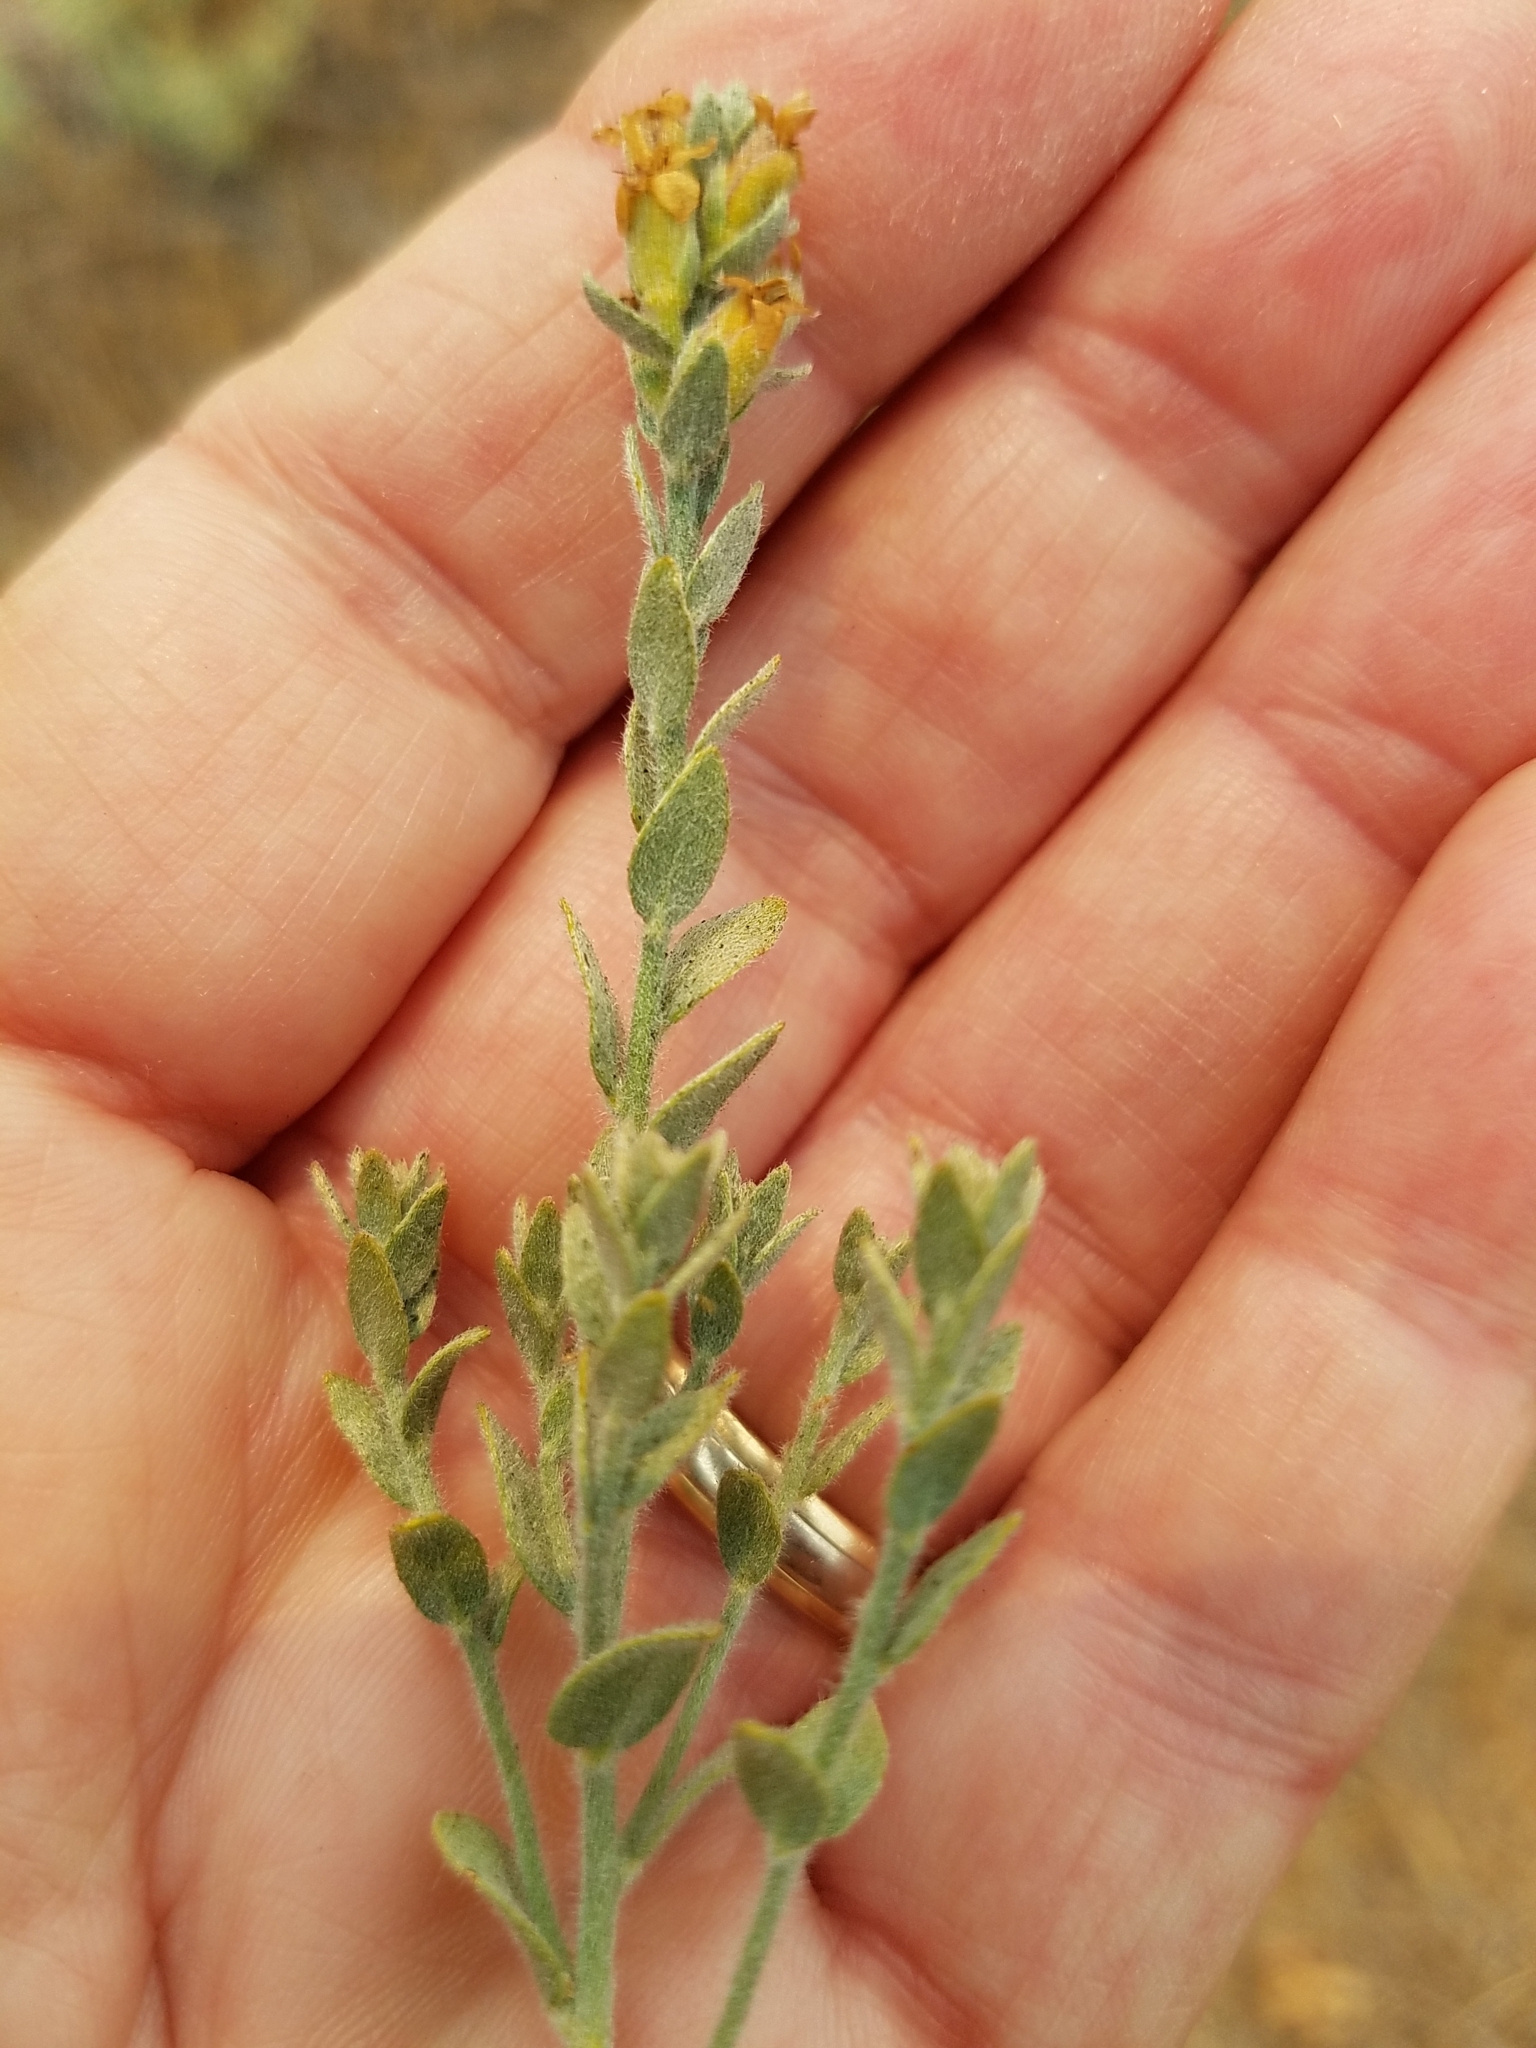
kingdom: Plantae
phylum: Tracheophyta
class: Magnoliopsida
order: Solanales
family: Convolvulaceae
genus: Cressa
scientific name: Cressa truxillensis
